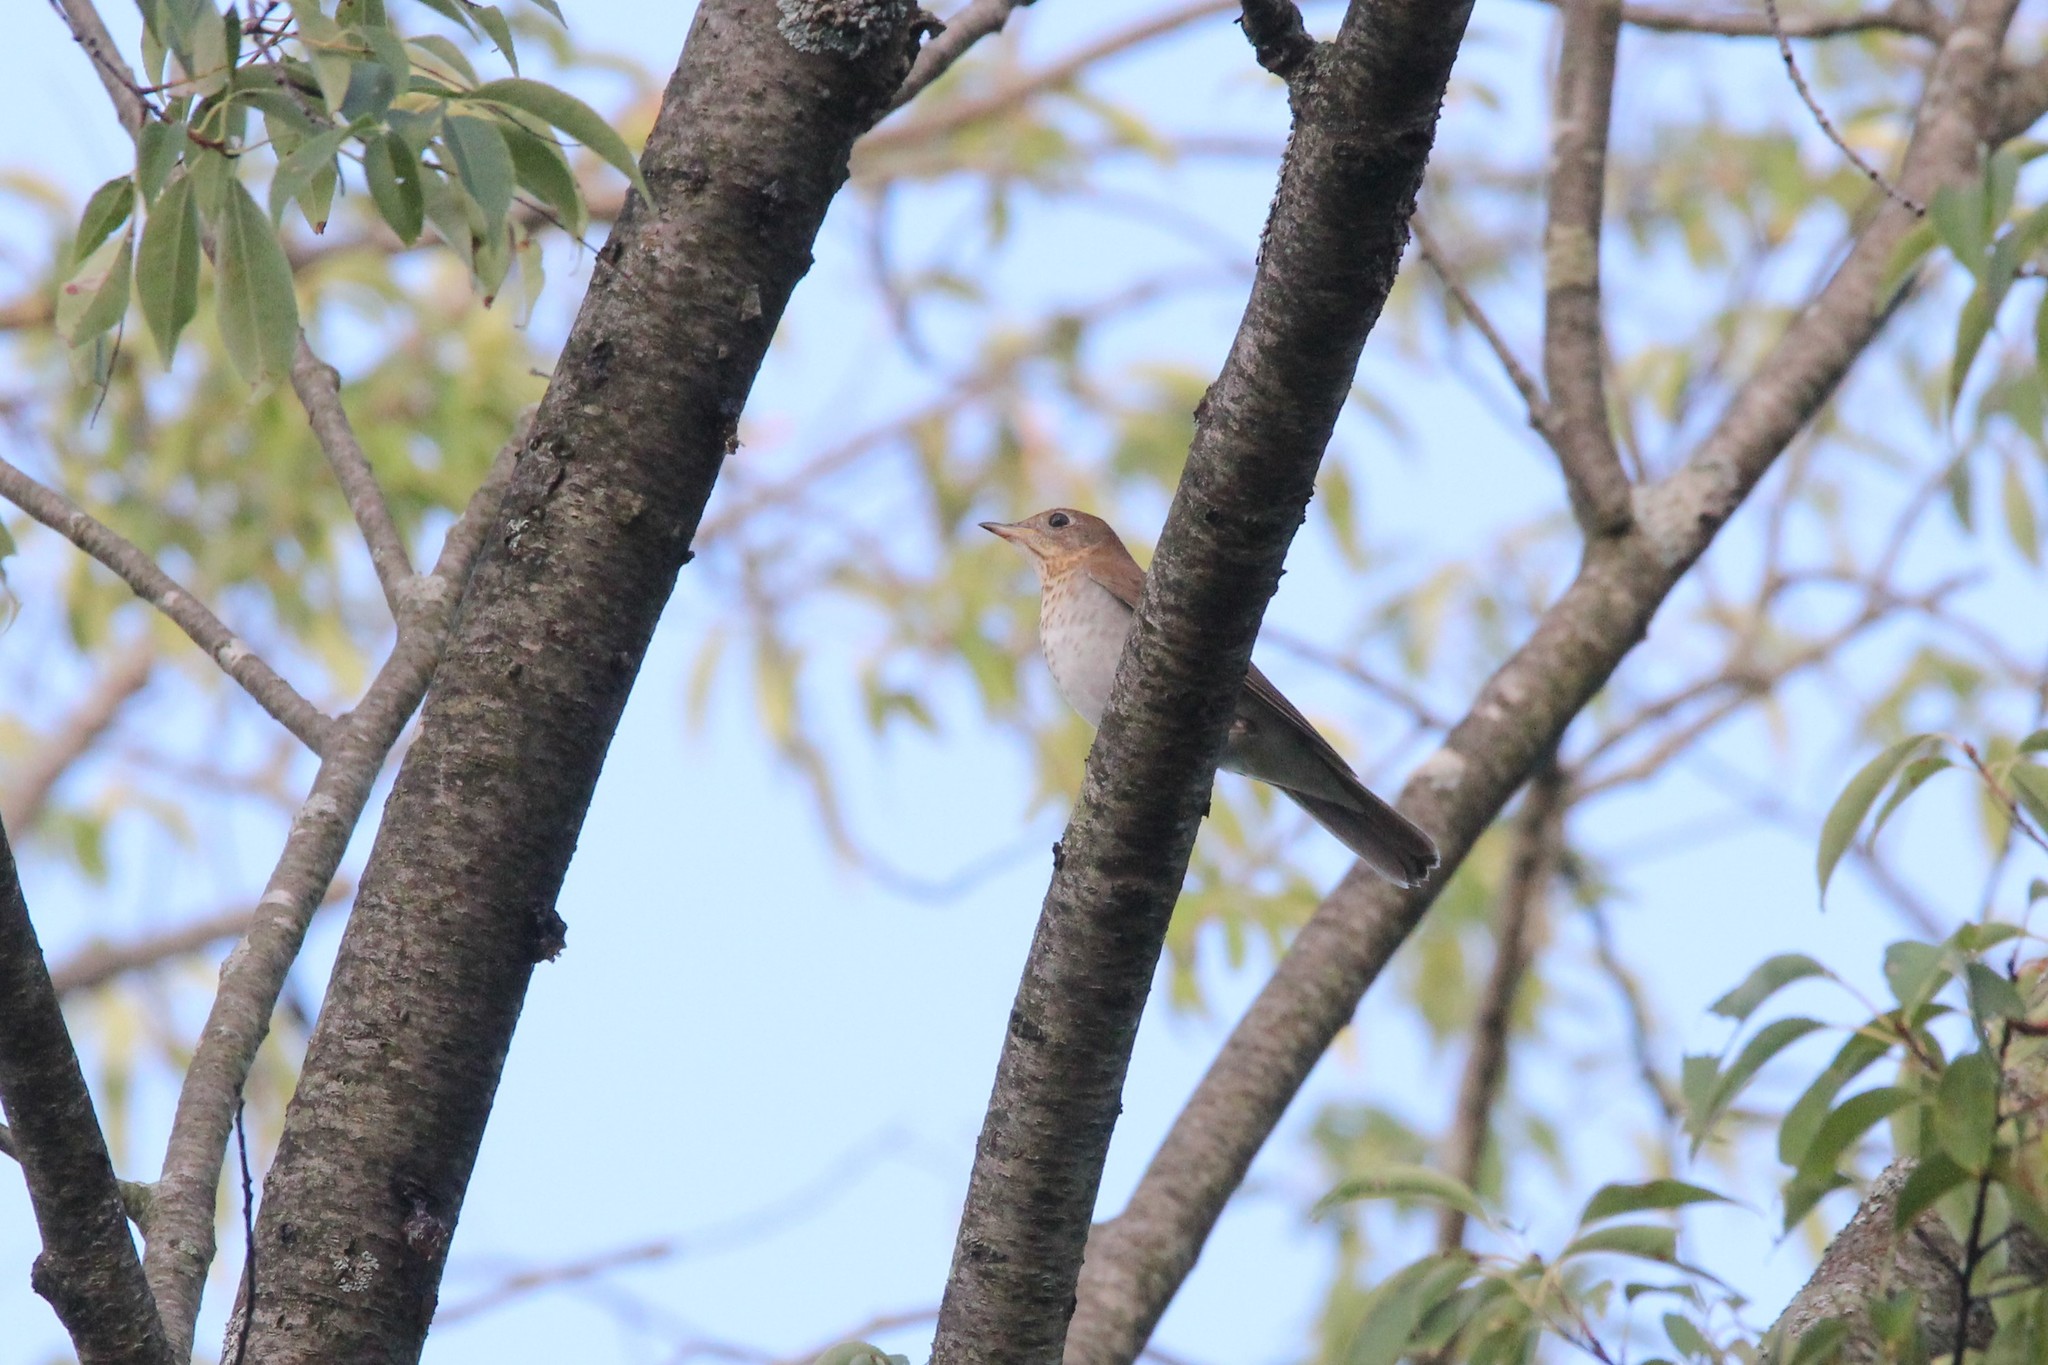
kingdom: Animalia
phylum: Chordata
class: Aves
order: Passeriformes
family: Turdidae
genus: Catharus
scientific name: Catharus fuscescens
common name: Veery
